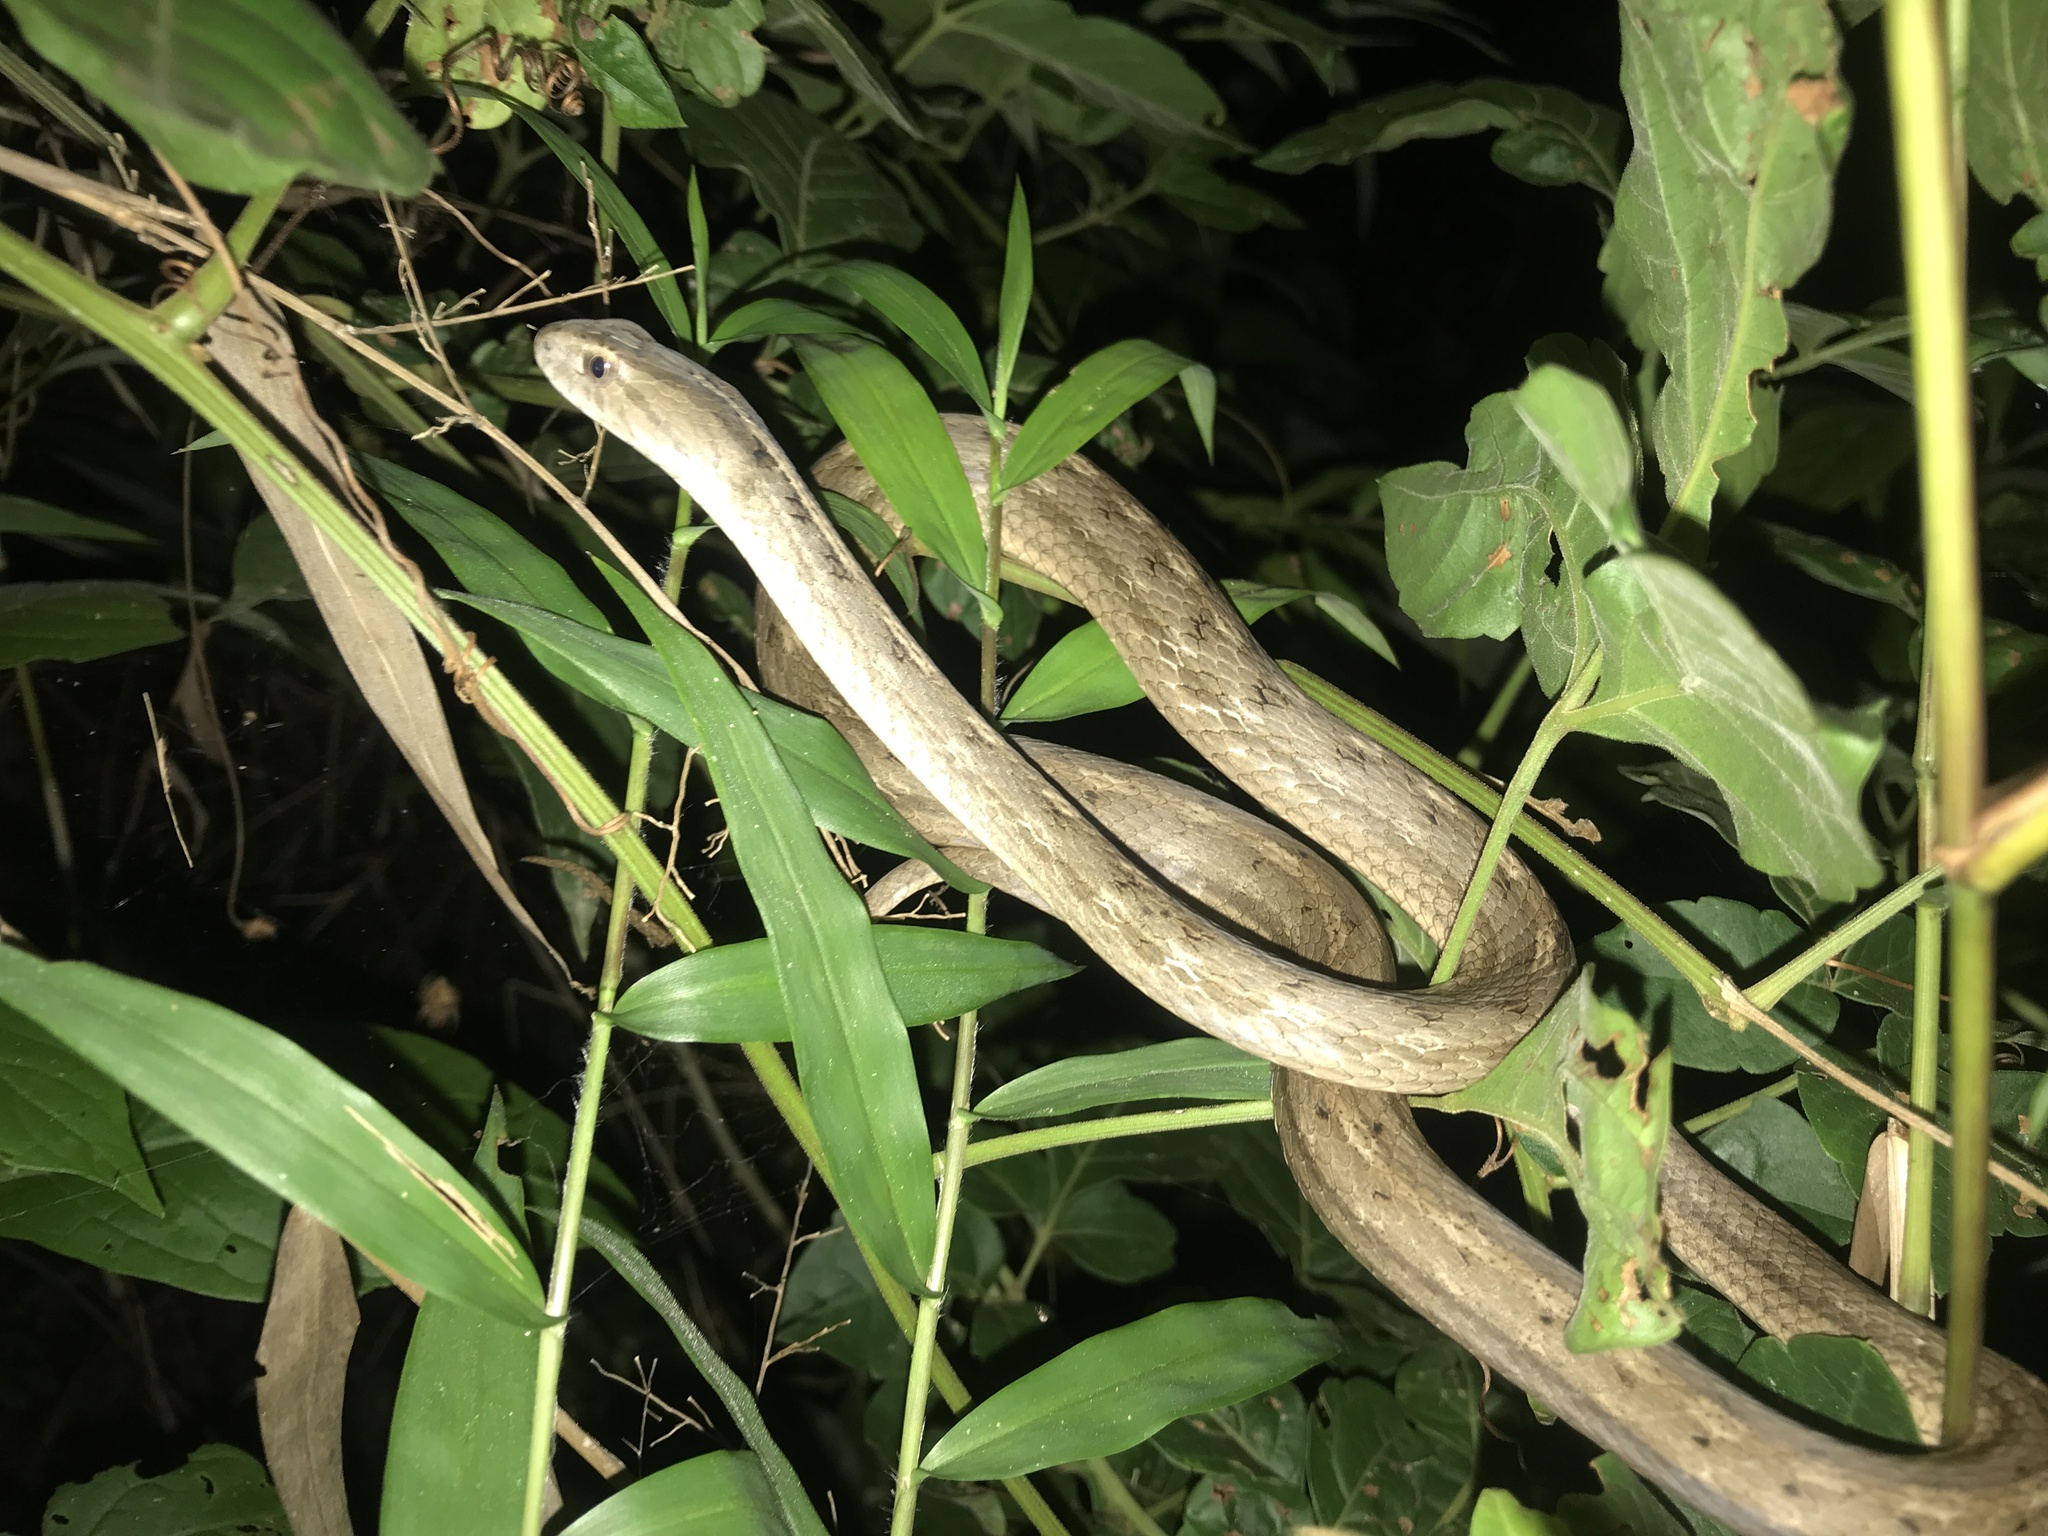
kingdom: Animalia
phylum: Chordata
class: Squamata
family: Colubridae
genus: Thamnodynastes
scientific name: Thamnodynastes sertanejo
